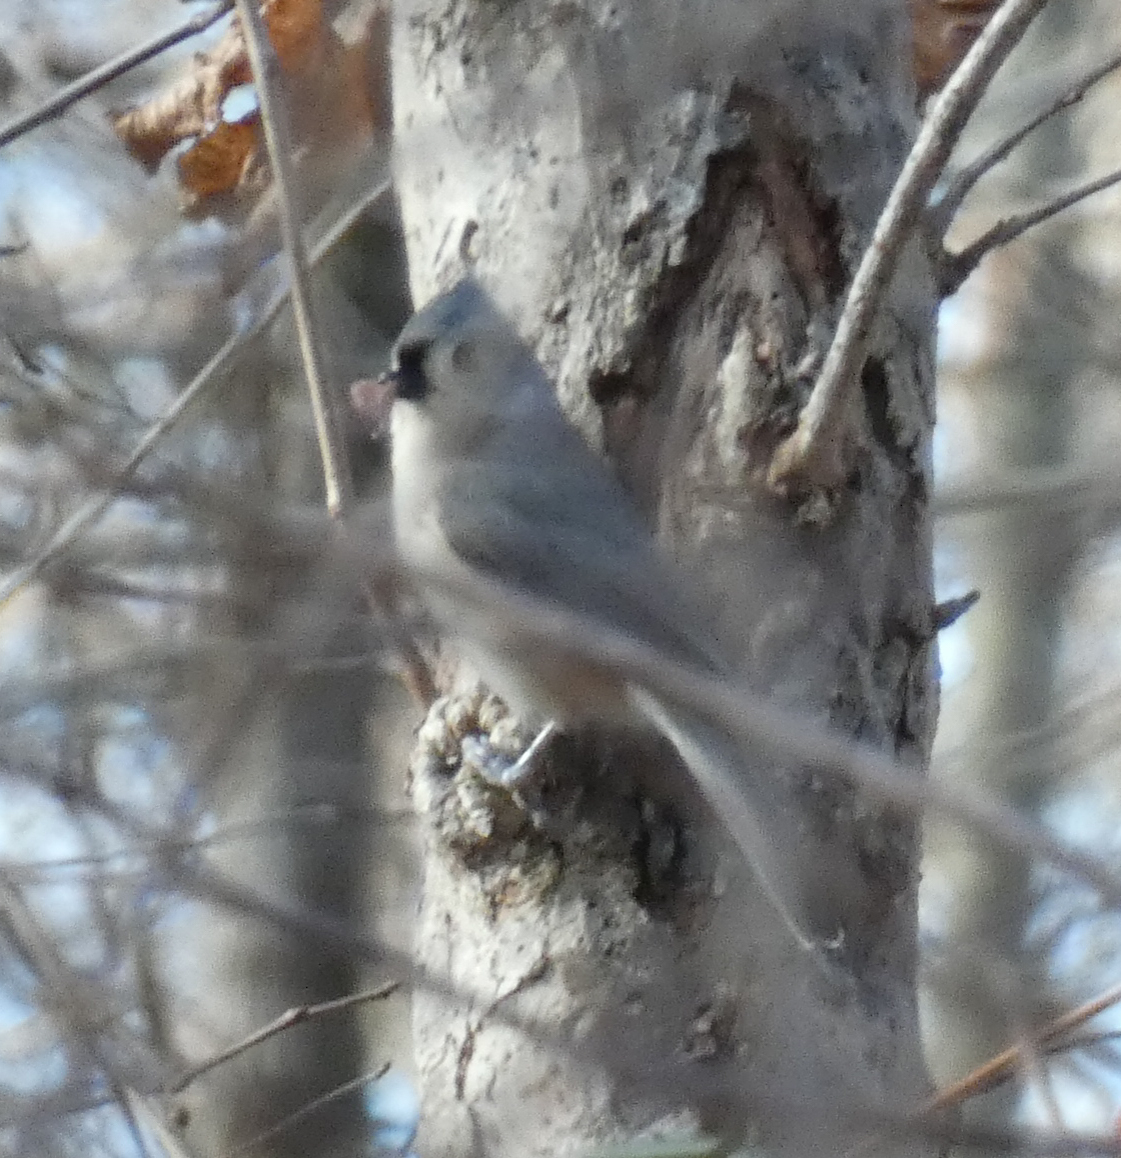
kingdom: Animalia
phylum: Chordata
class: Aves
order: Passeriformes
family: Paridae
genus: Baeolophus
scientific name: Baeolophus bicolor
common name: Tufted titmouse
